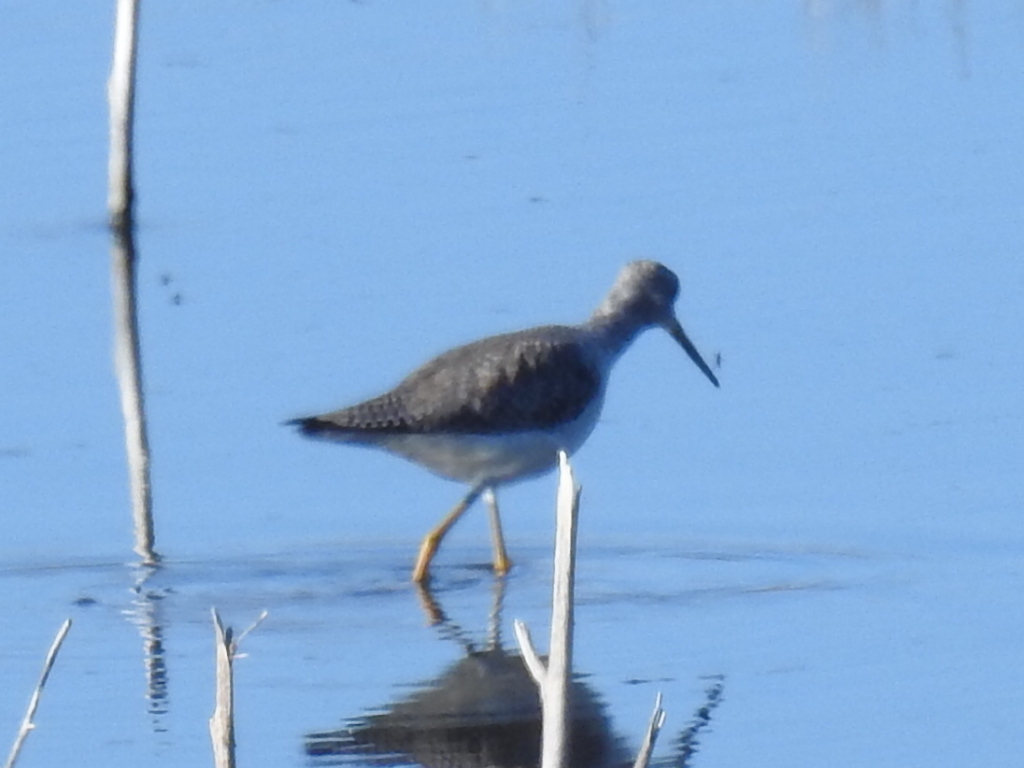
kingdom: Animalia
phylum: Chordata
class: Aves
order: Charadriiformes
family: Scolopacidae
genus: Tringa
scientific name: Tringa melanoleuca
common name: Greater yellowlegs
